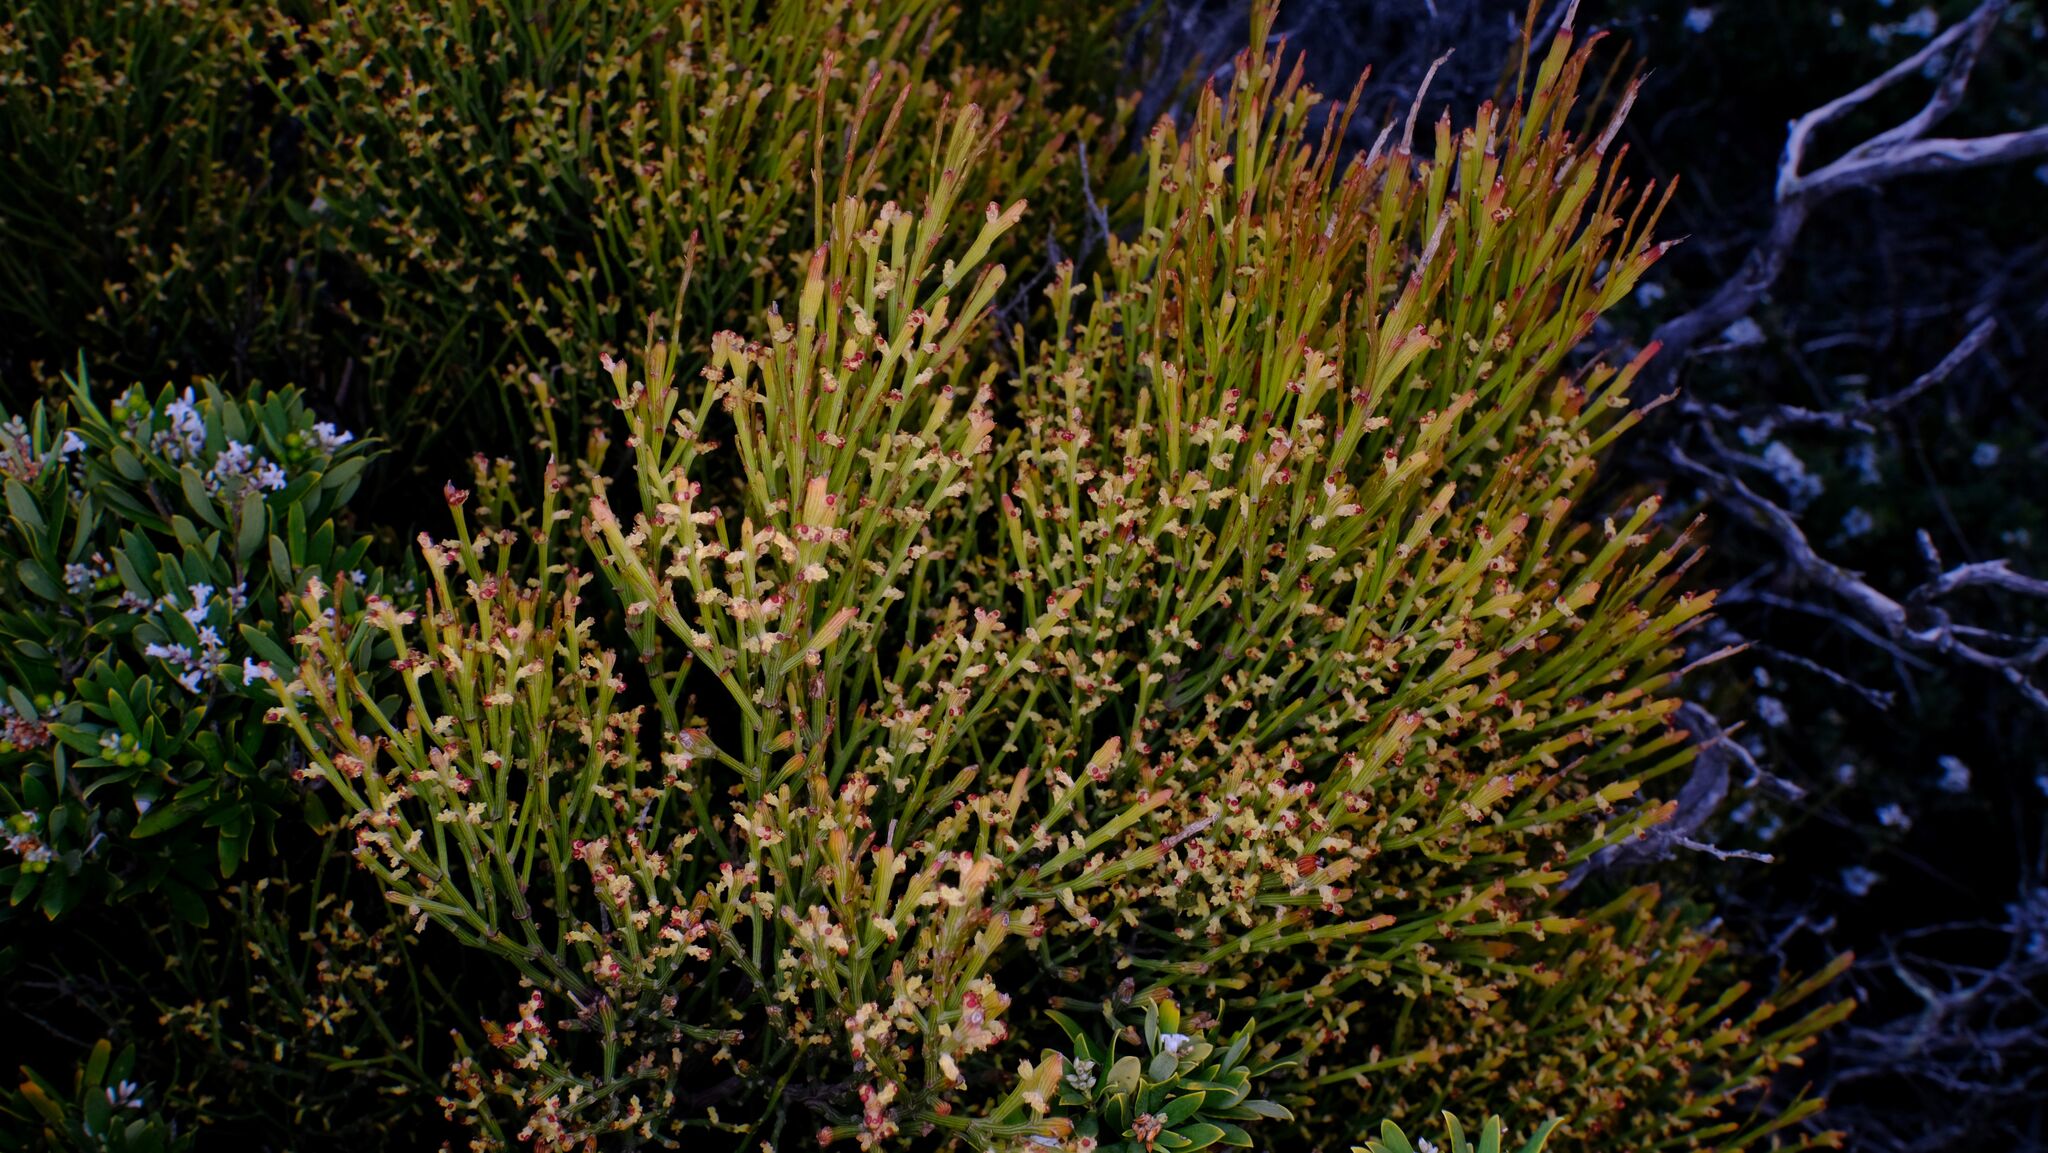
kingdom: Plantae
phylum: Tracheophyta
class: Magnoliopsida
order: Santalales
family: Santalaceae
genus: Exocarpos
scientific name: Exocarpos syrticola
